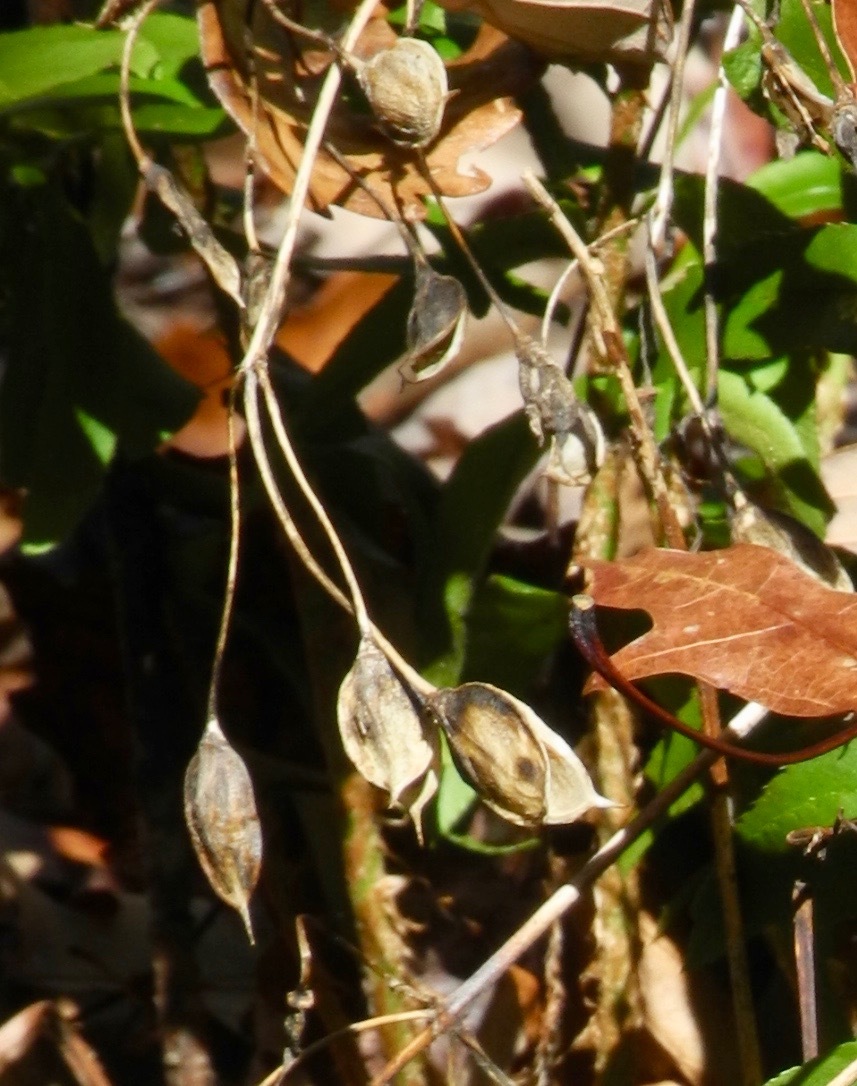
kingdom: Plantae
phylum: Tracheophyta
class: Magnoliopsida
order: Gentianales
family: Gentianaceae
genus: Frasera
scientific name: Frasera caroliniensis
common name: American columbo
